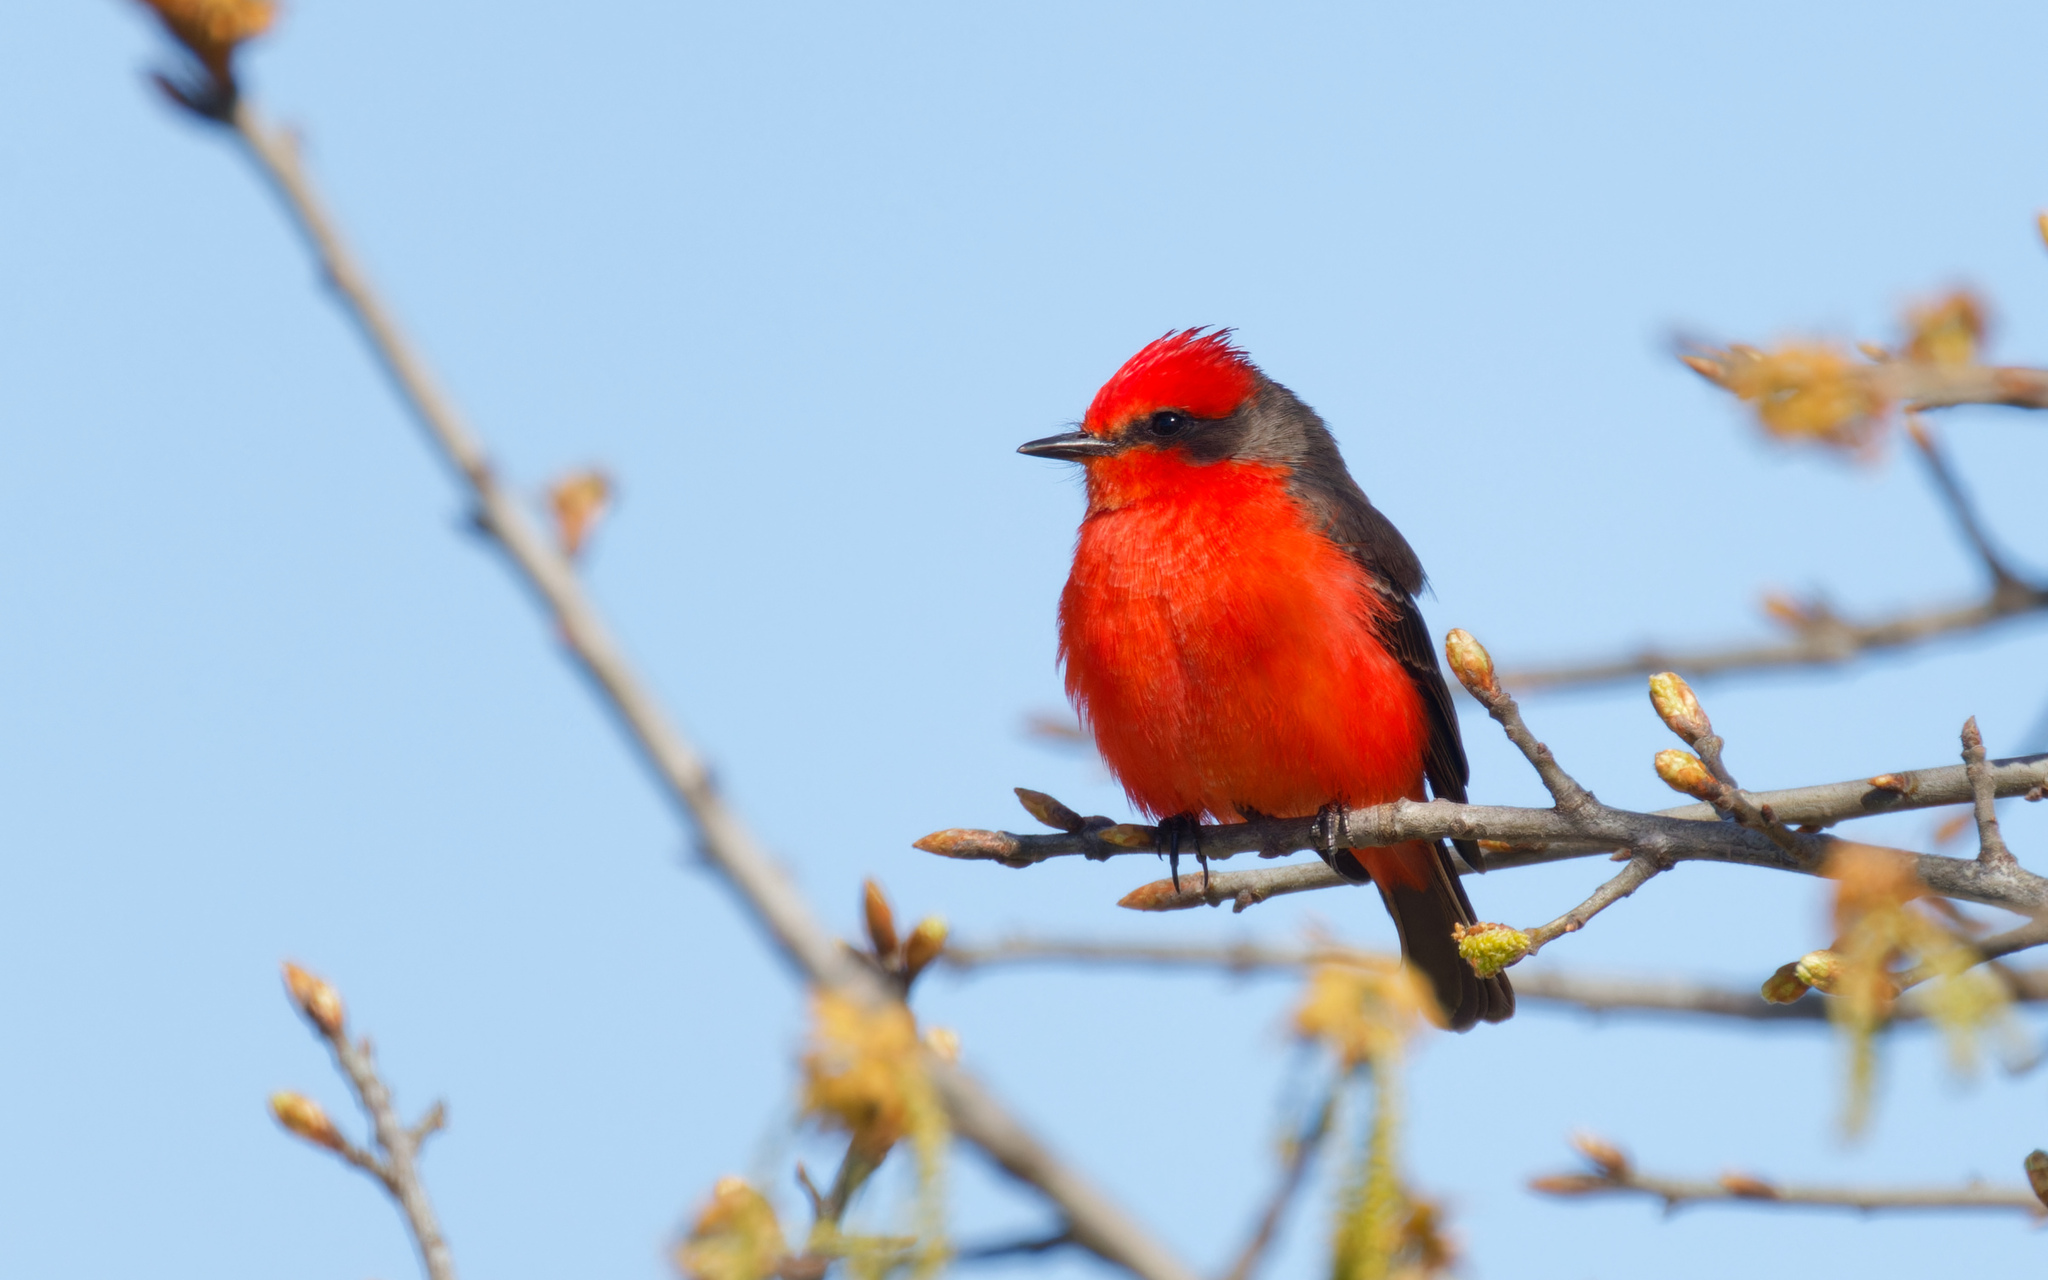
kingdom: Animalia
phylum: Chordata
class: Aves
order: Passeriformes
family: Tyrannidae
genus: Pyrocephalus
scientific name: Pyrocephalus rubinus
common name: Vermilion flycatcher
